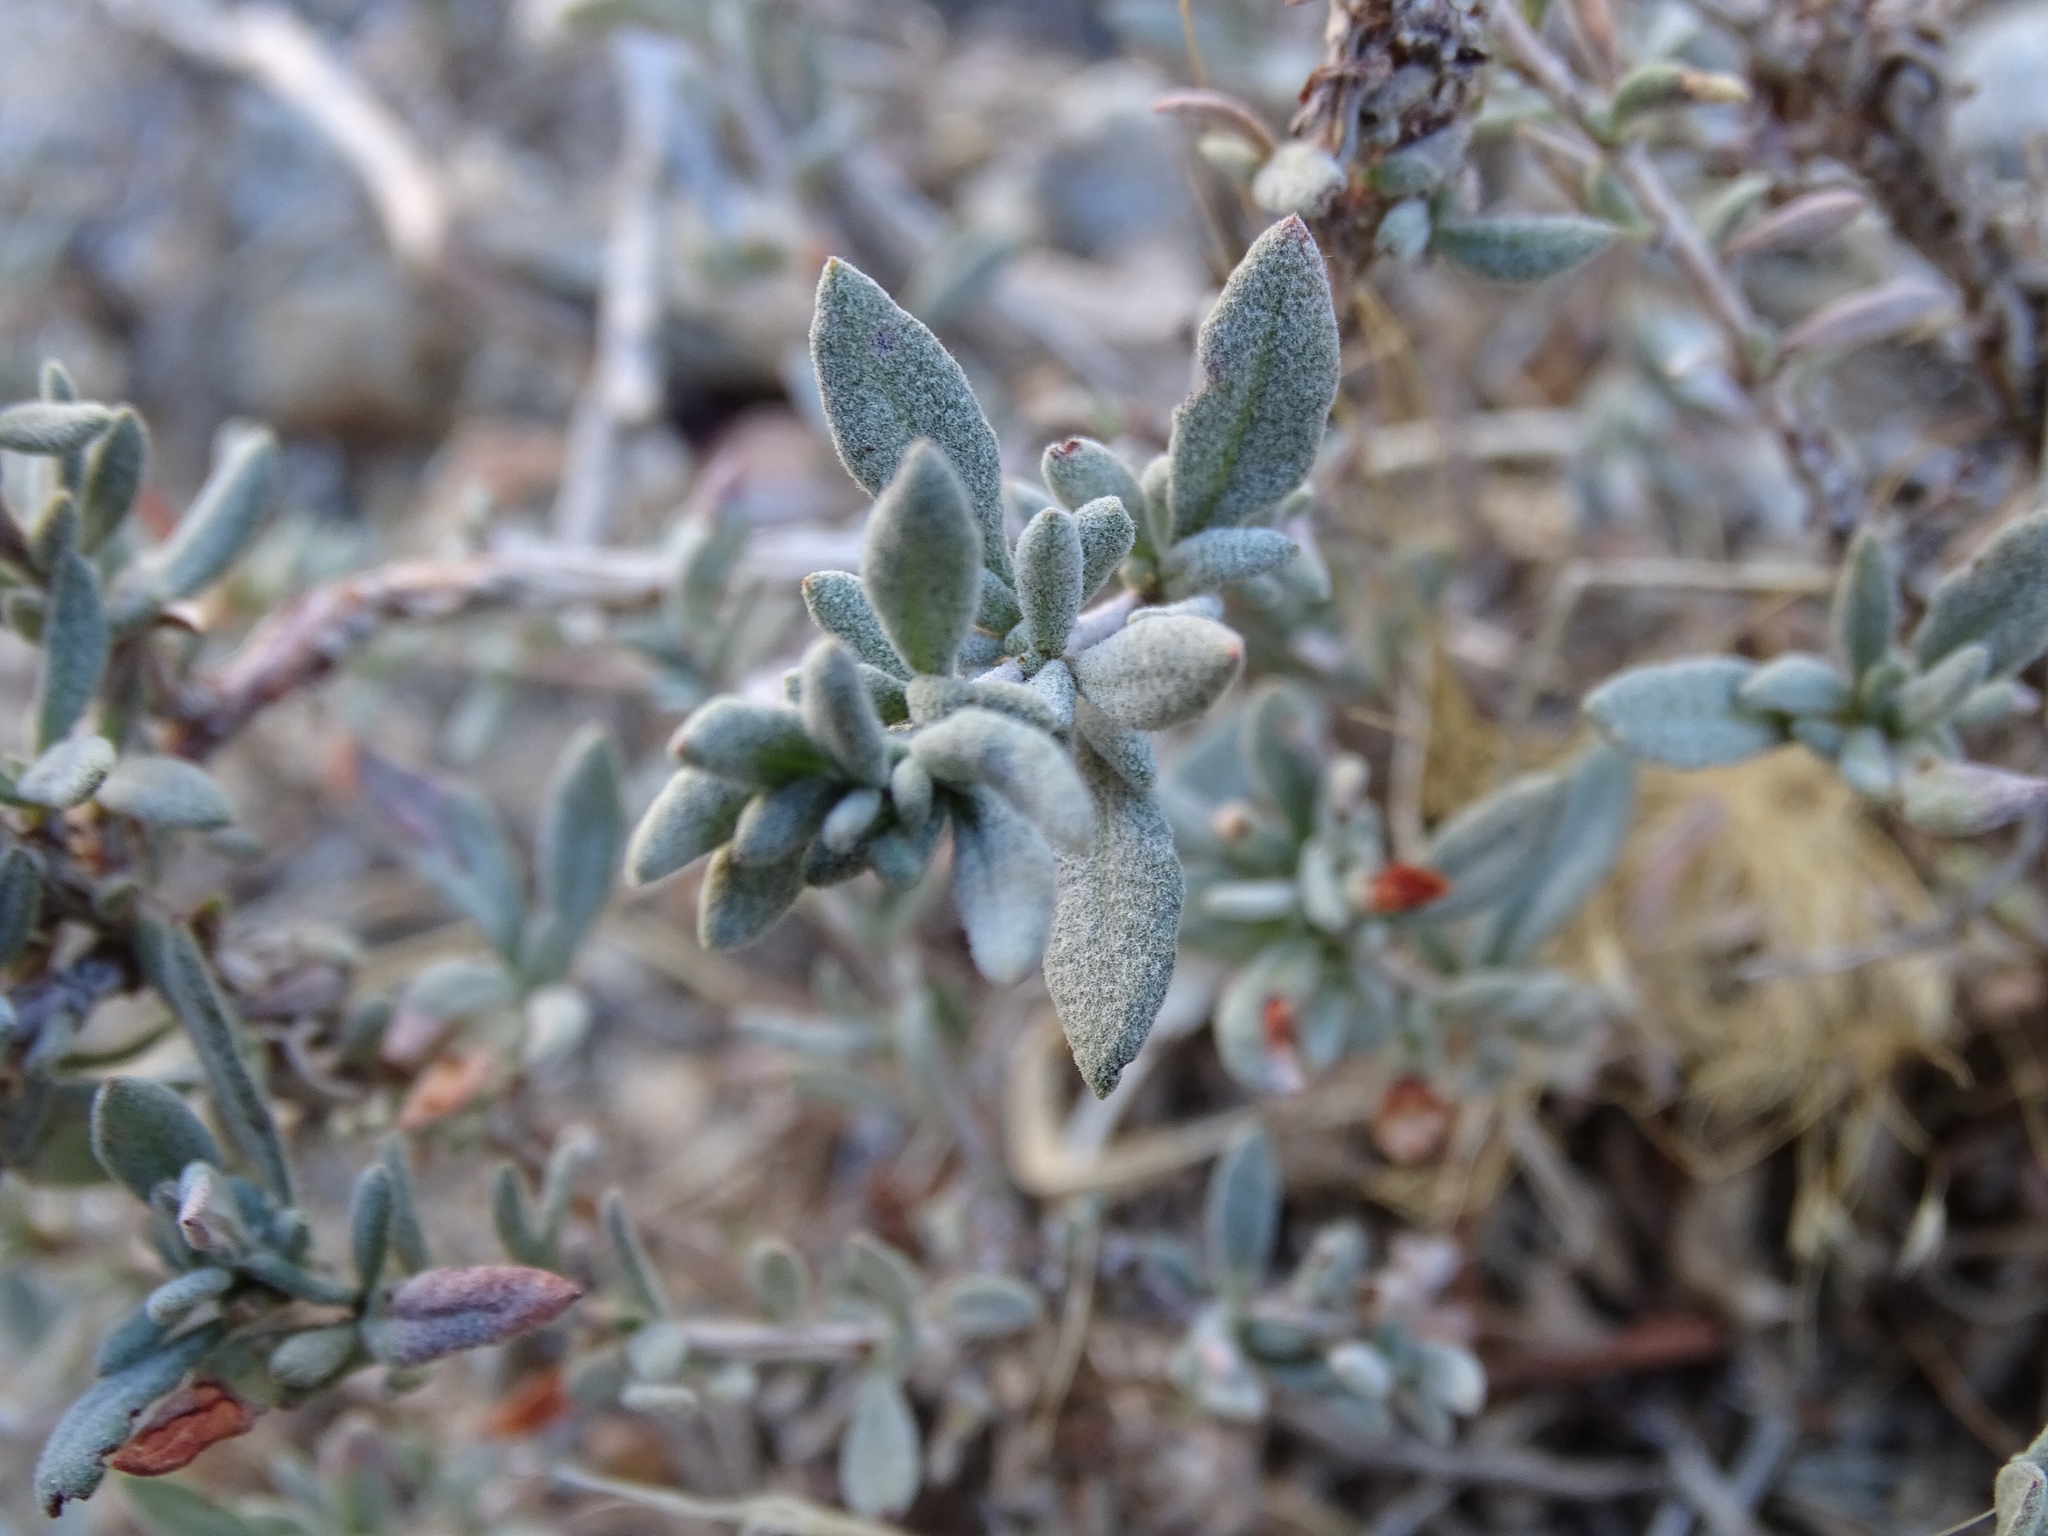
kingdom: Plantae
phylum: Tracheophyta
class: Magnoliopsida
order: Caryophyllales
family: Polygonaceae
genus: Eriogonum
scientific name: Eriogonum fasciculatum
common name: California wild buckwheat
